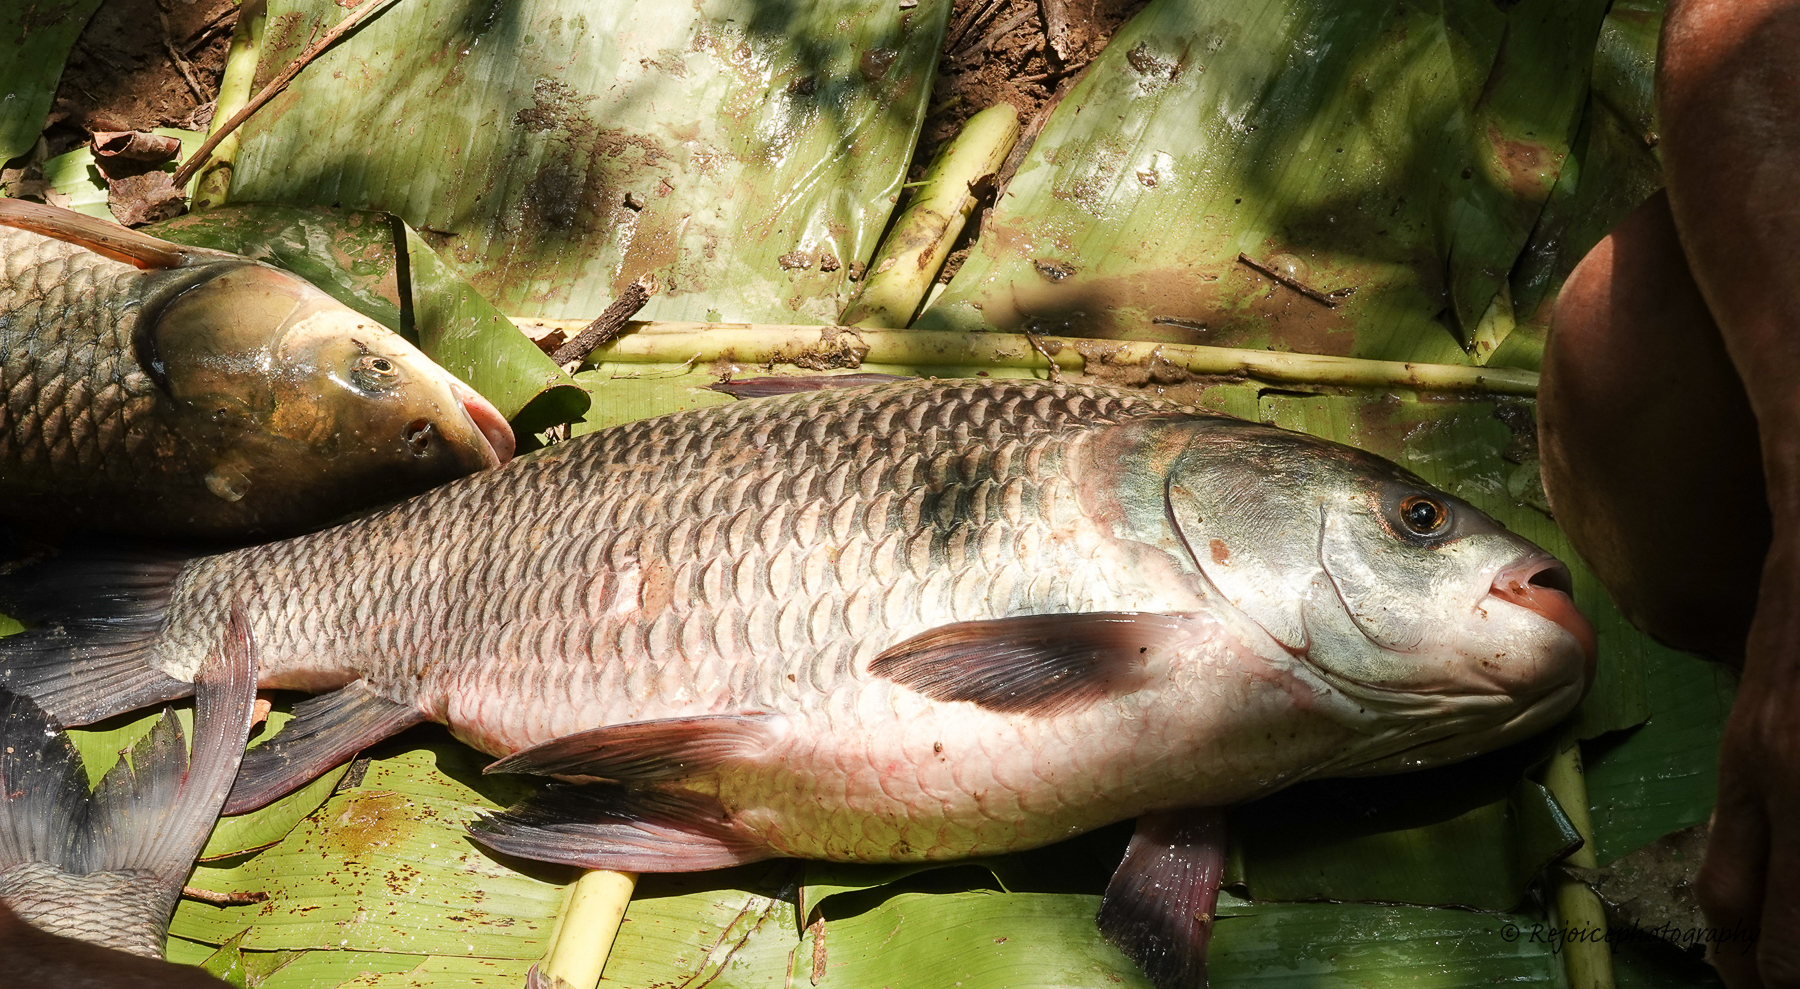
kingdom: Animalia
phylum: Chordata
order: Cypriniformes
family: Cyprinidae
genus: Gibelion
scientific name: Gibelion catla
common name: Catla
